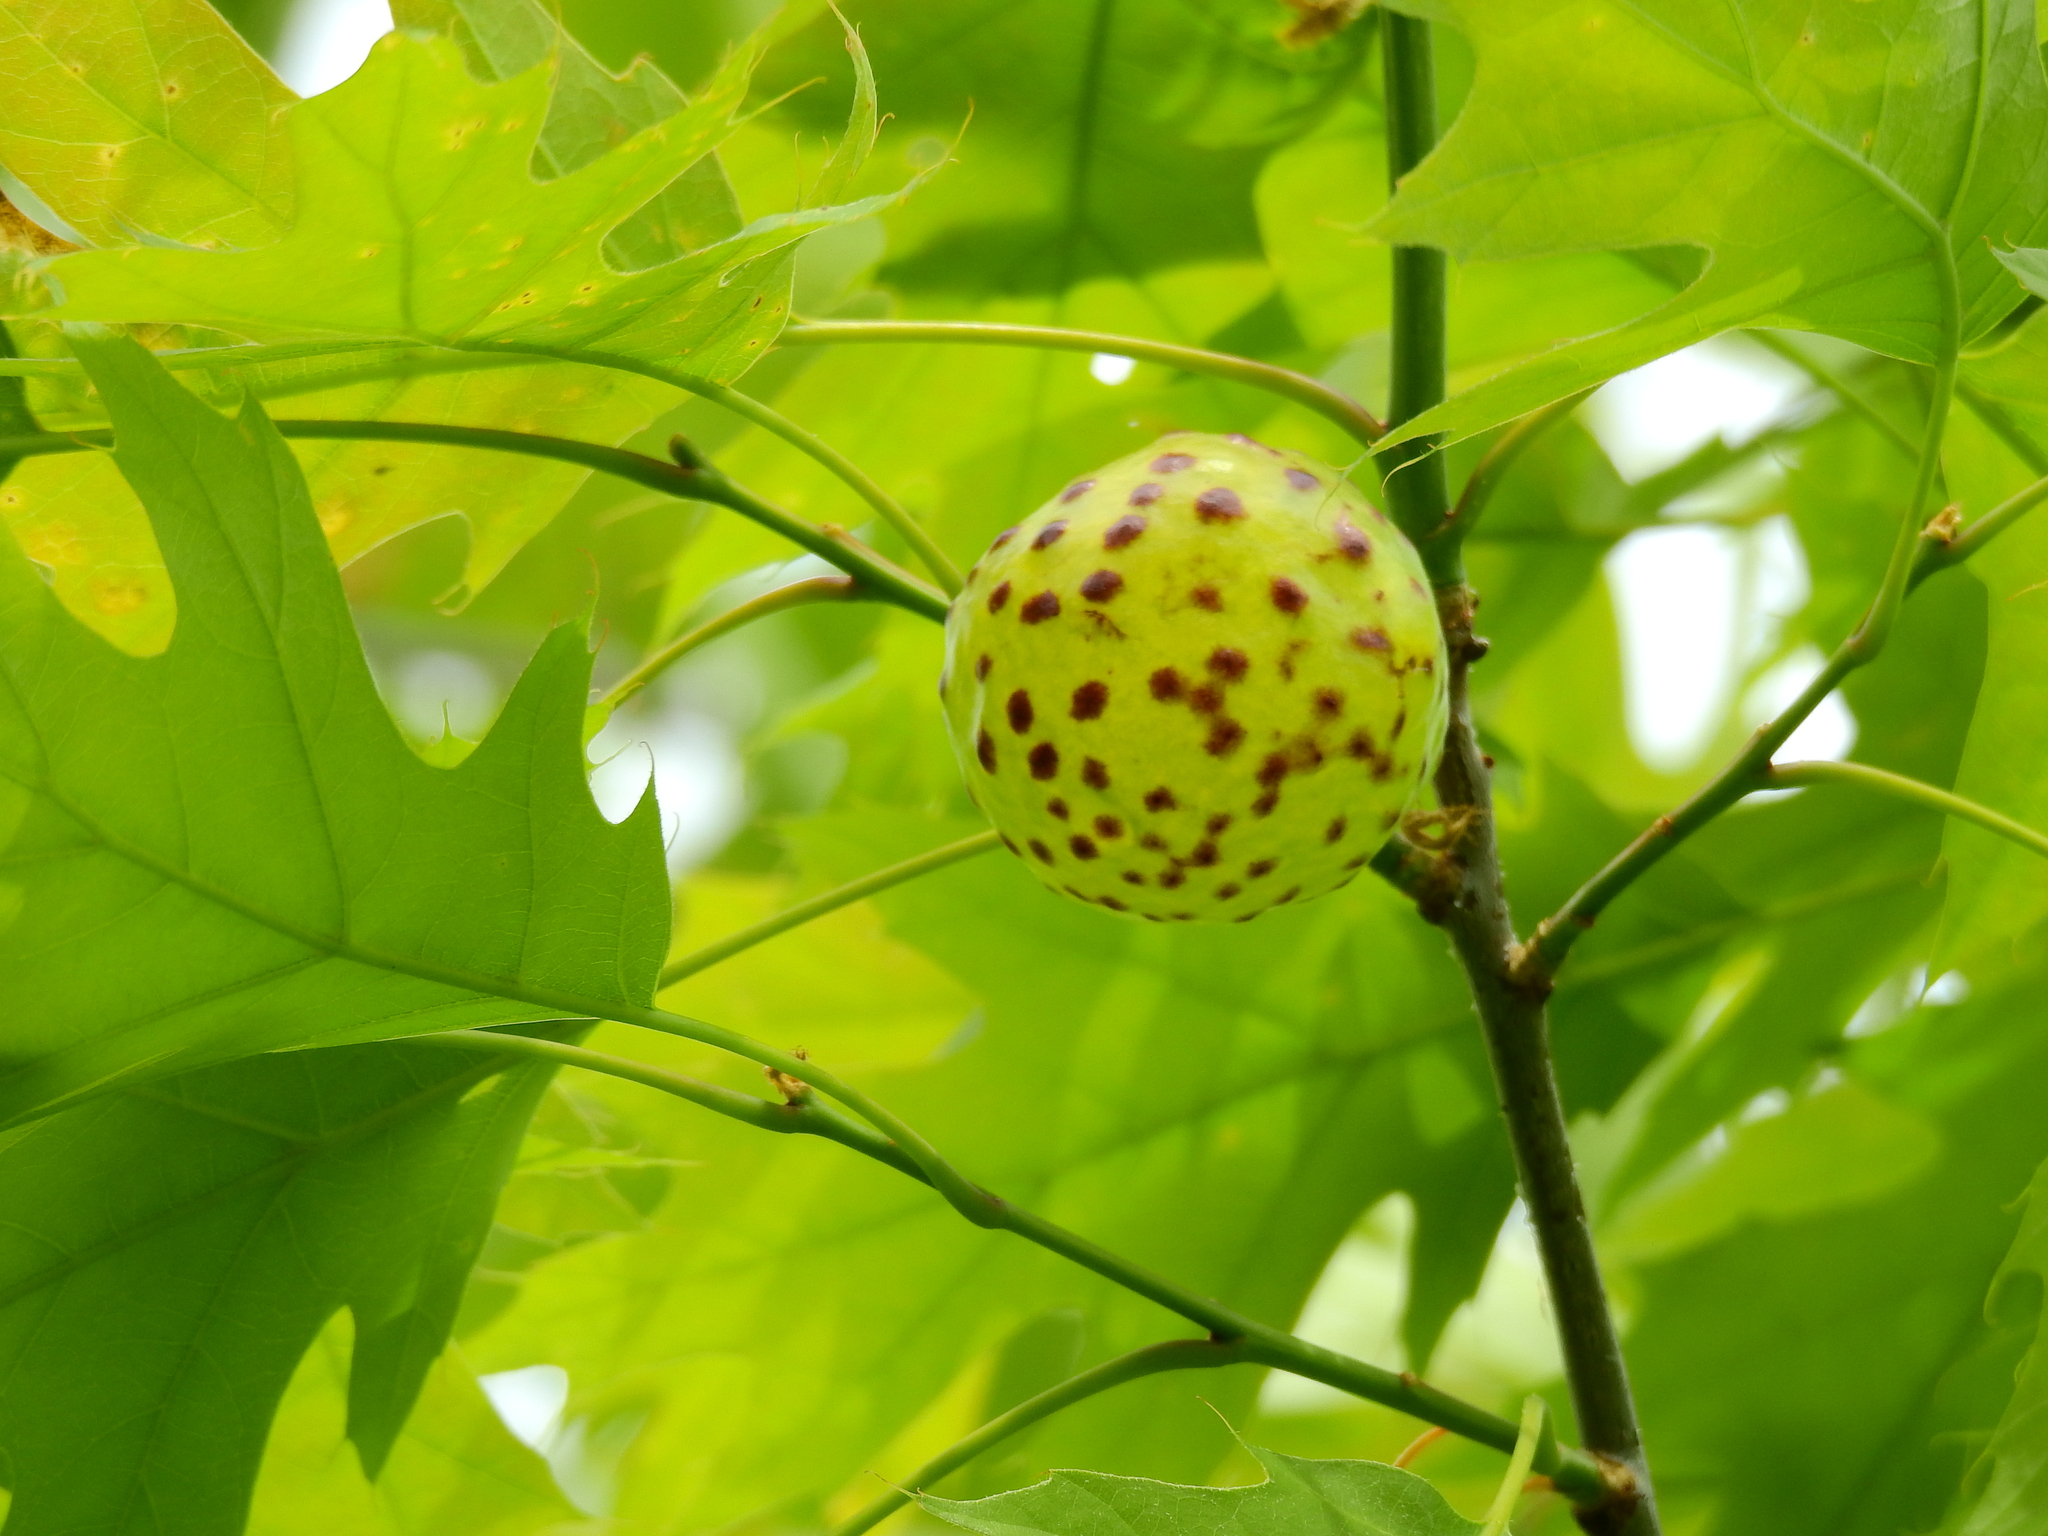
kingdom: Animalia
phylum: Arthropoda
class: Insecta
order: Hymenoptera
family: Cynipidae
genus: Amphibolips
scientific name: Amphibolips
